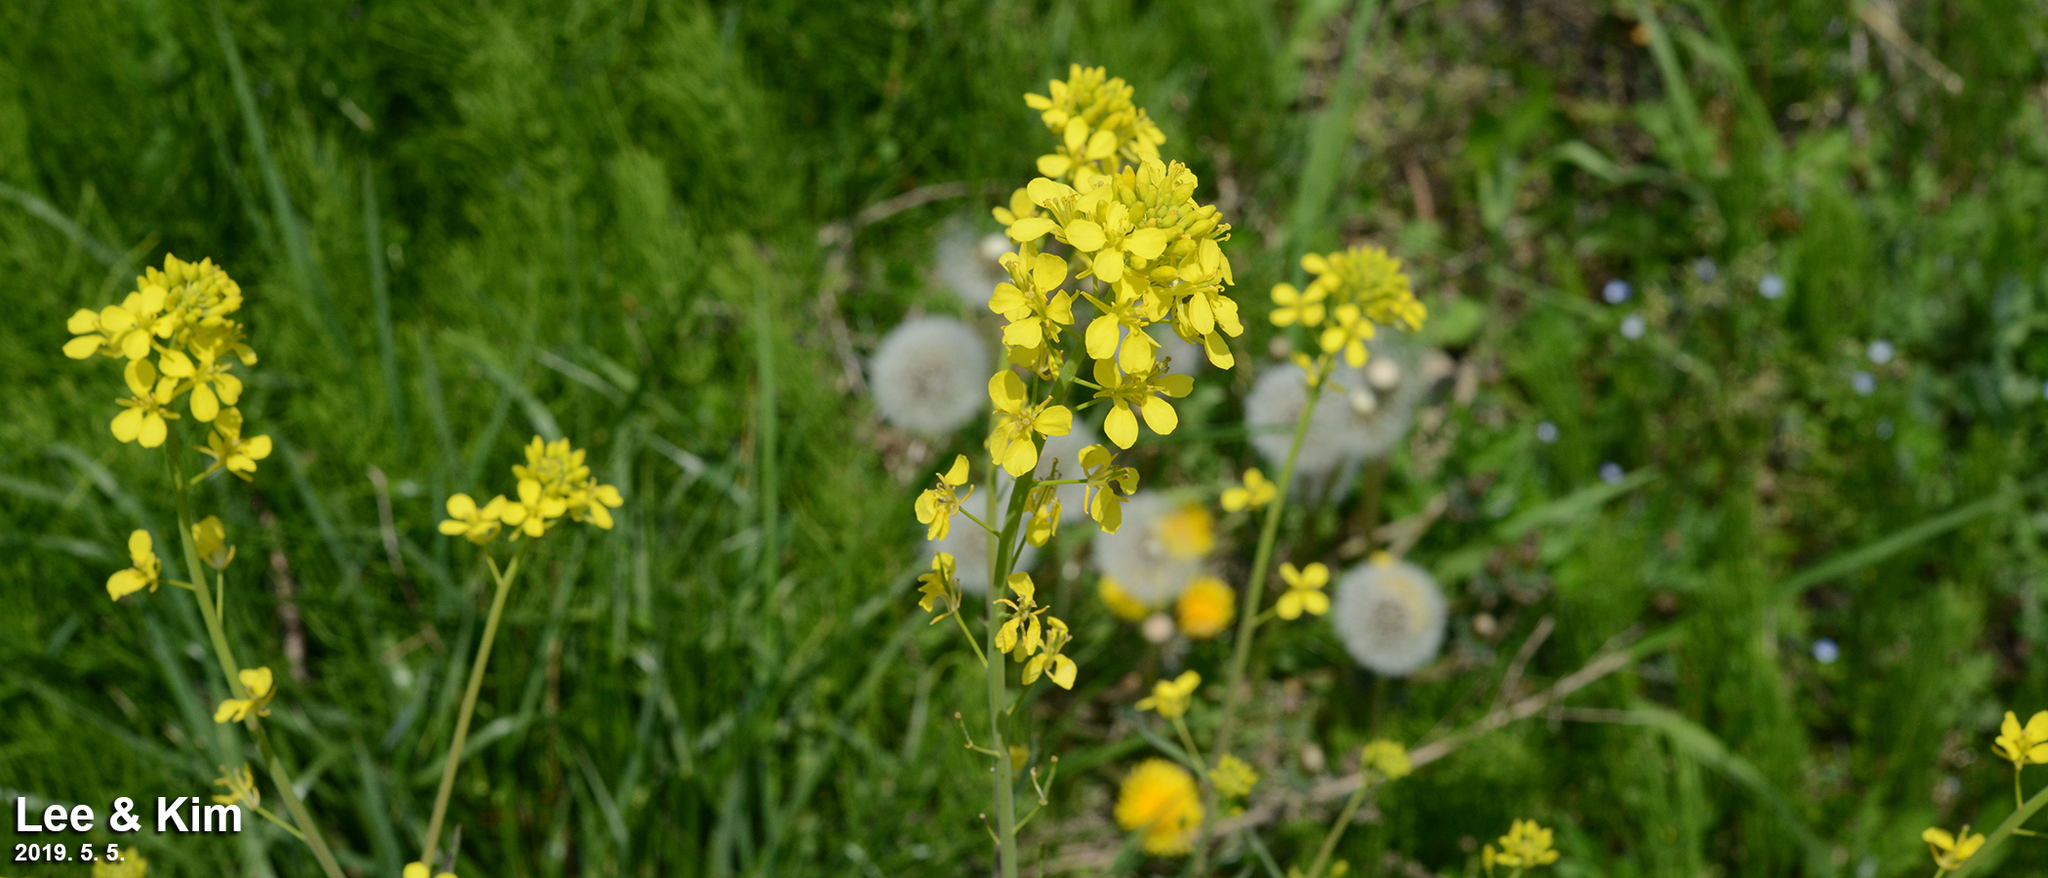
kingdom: Plantae
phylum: Tracheophyta
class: Magnoliopsida
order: Brassicales
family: Brassicaceae
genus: Brassica
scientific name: Brassica rapa
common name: Field mustard
